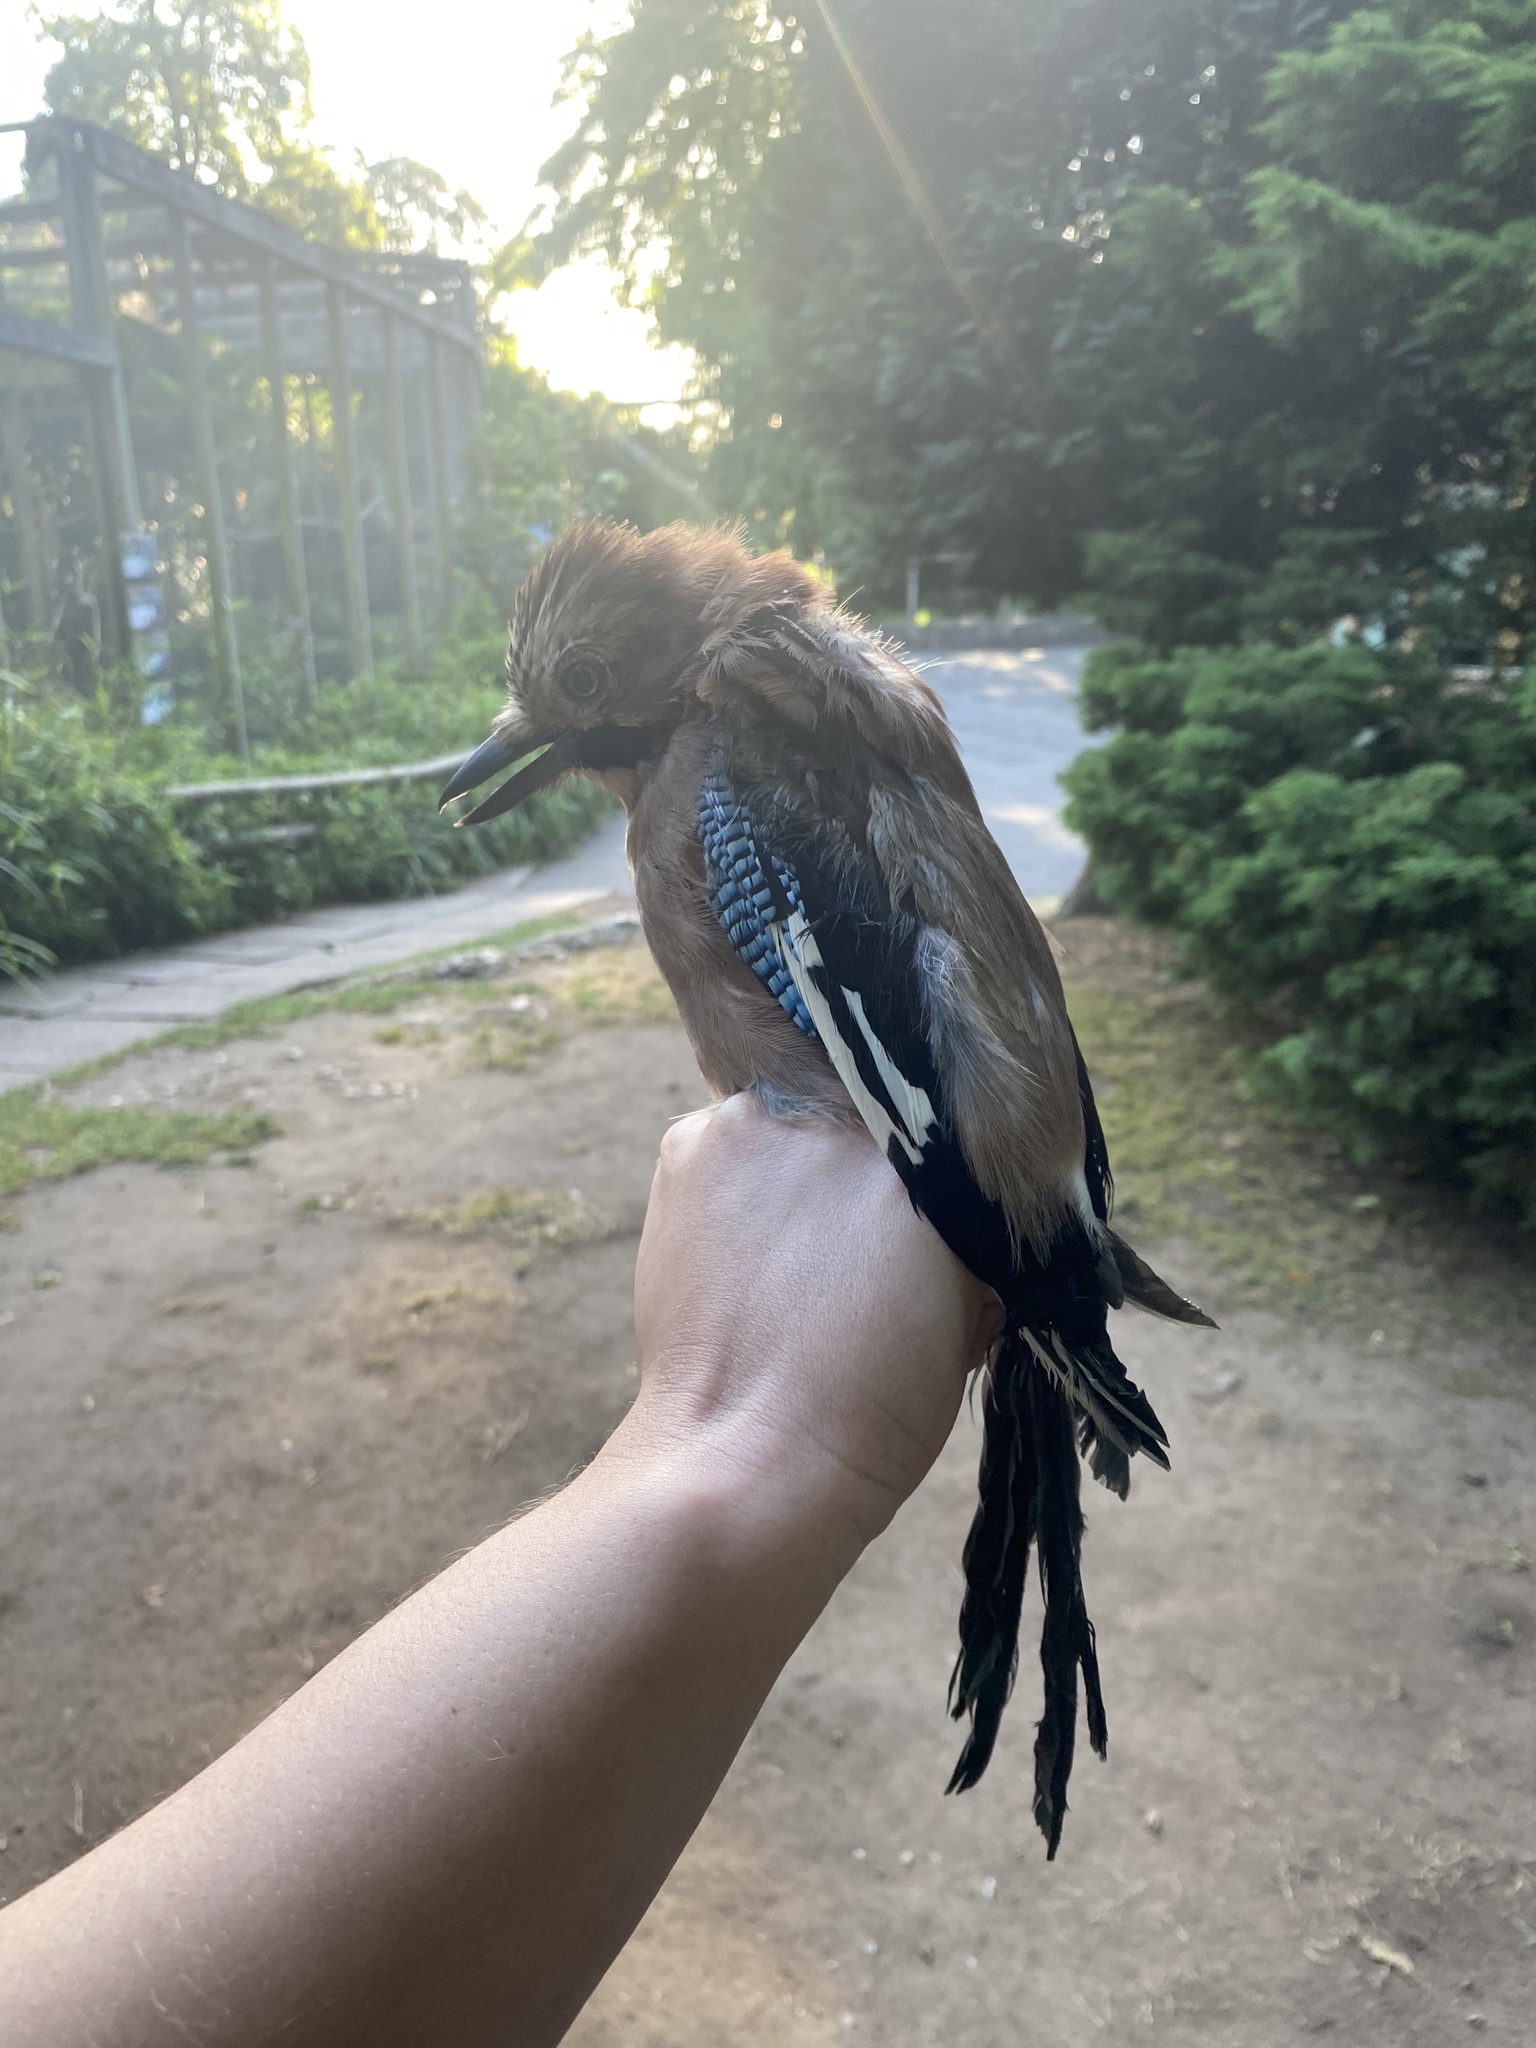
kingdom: Animalia
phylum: Chordata
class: Aves
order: Passeriformes
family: Corvidae
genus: Garrulus
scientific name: Garrulus glandarius
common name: Eurasian jay
